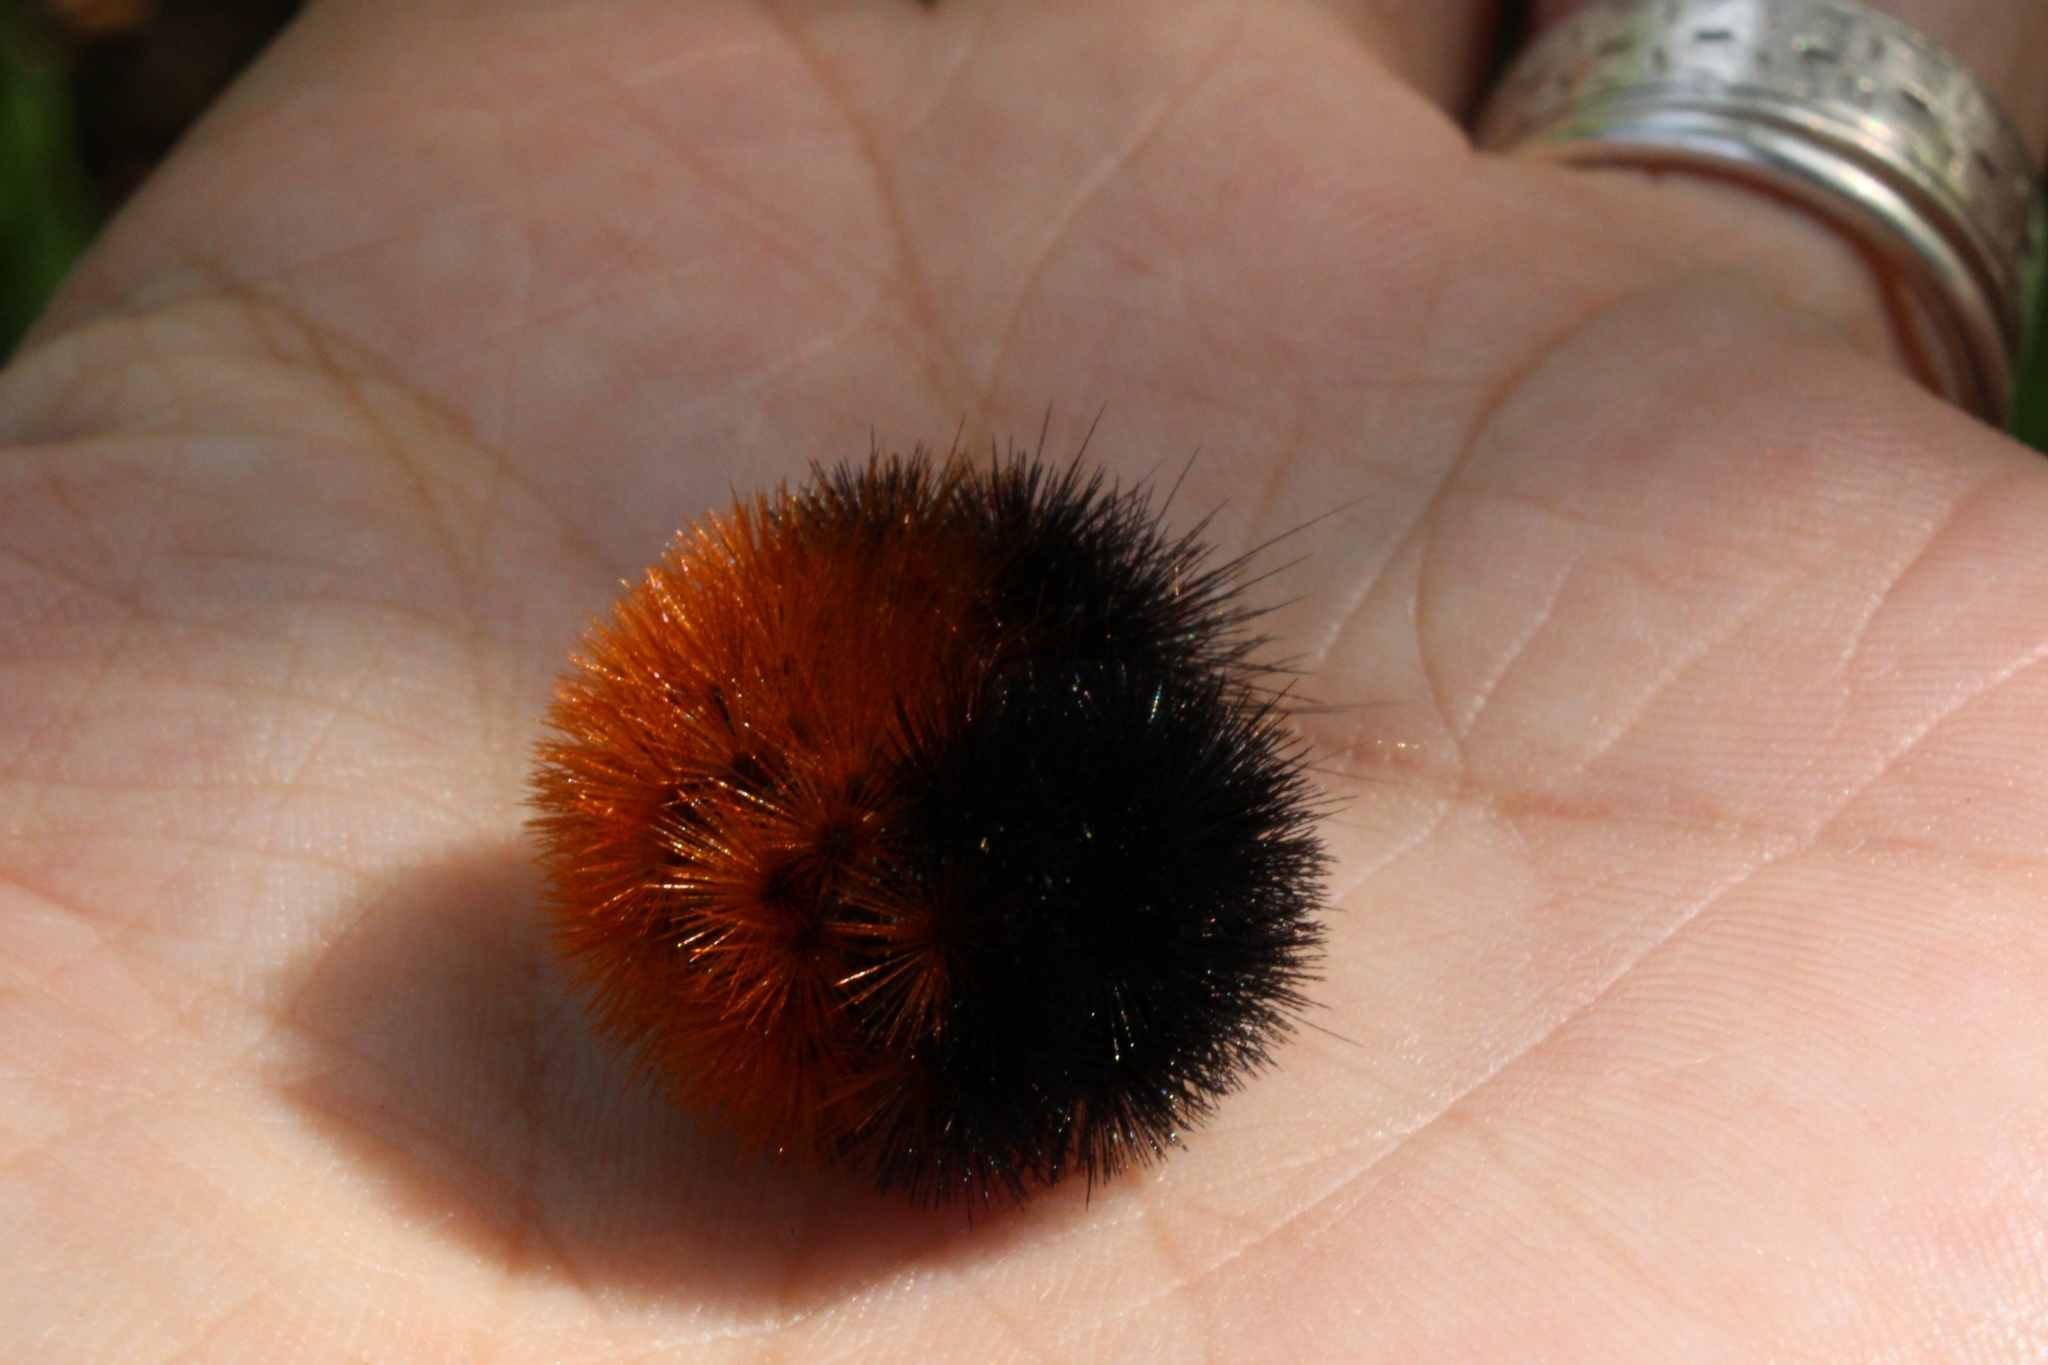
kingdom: Animalia
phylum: Arthropoda
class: Insecta
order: Lepidoptera
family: Erebidae
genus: Pyrrharctia
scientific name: Pyrrharctia isabella
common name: Isabella tiger moth
